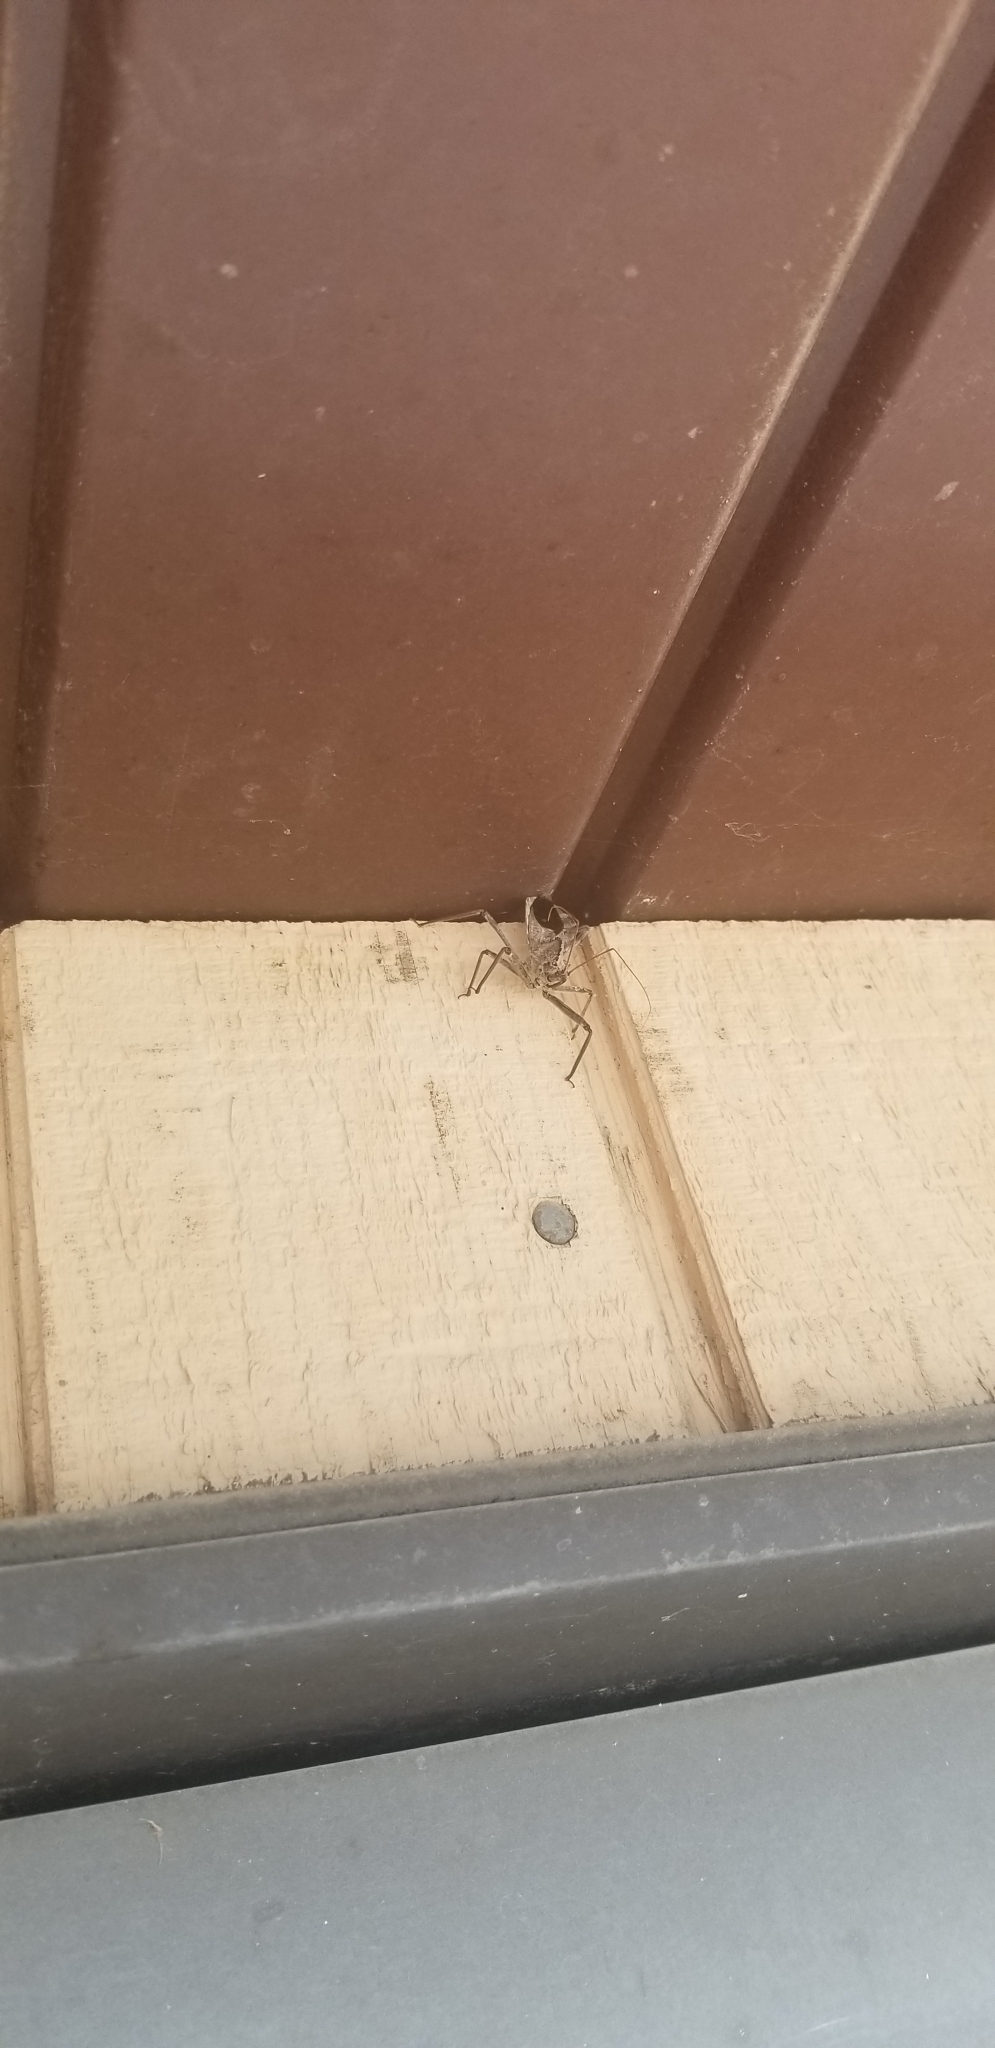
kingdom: Animalia
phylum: Arthropoda
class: Insecta
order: Hemiptera
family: Reduviidae
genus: Arilus
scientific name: Arilus cristatus
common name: North american wheel bug
